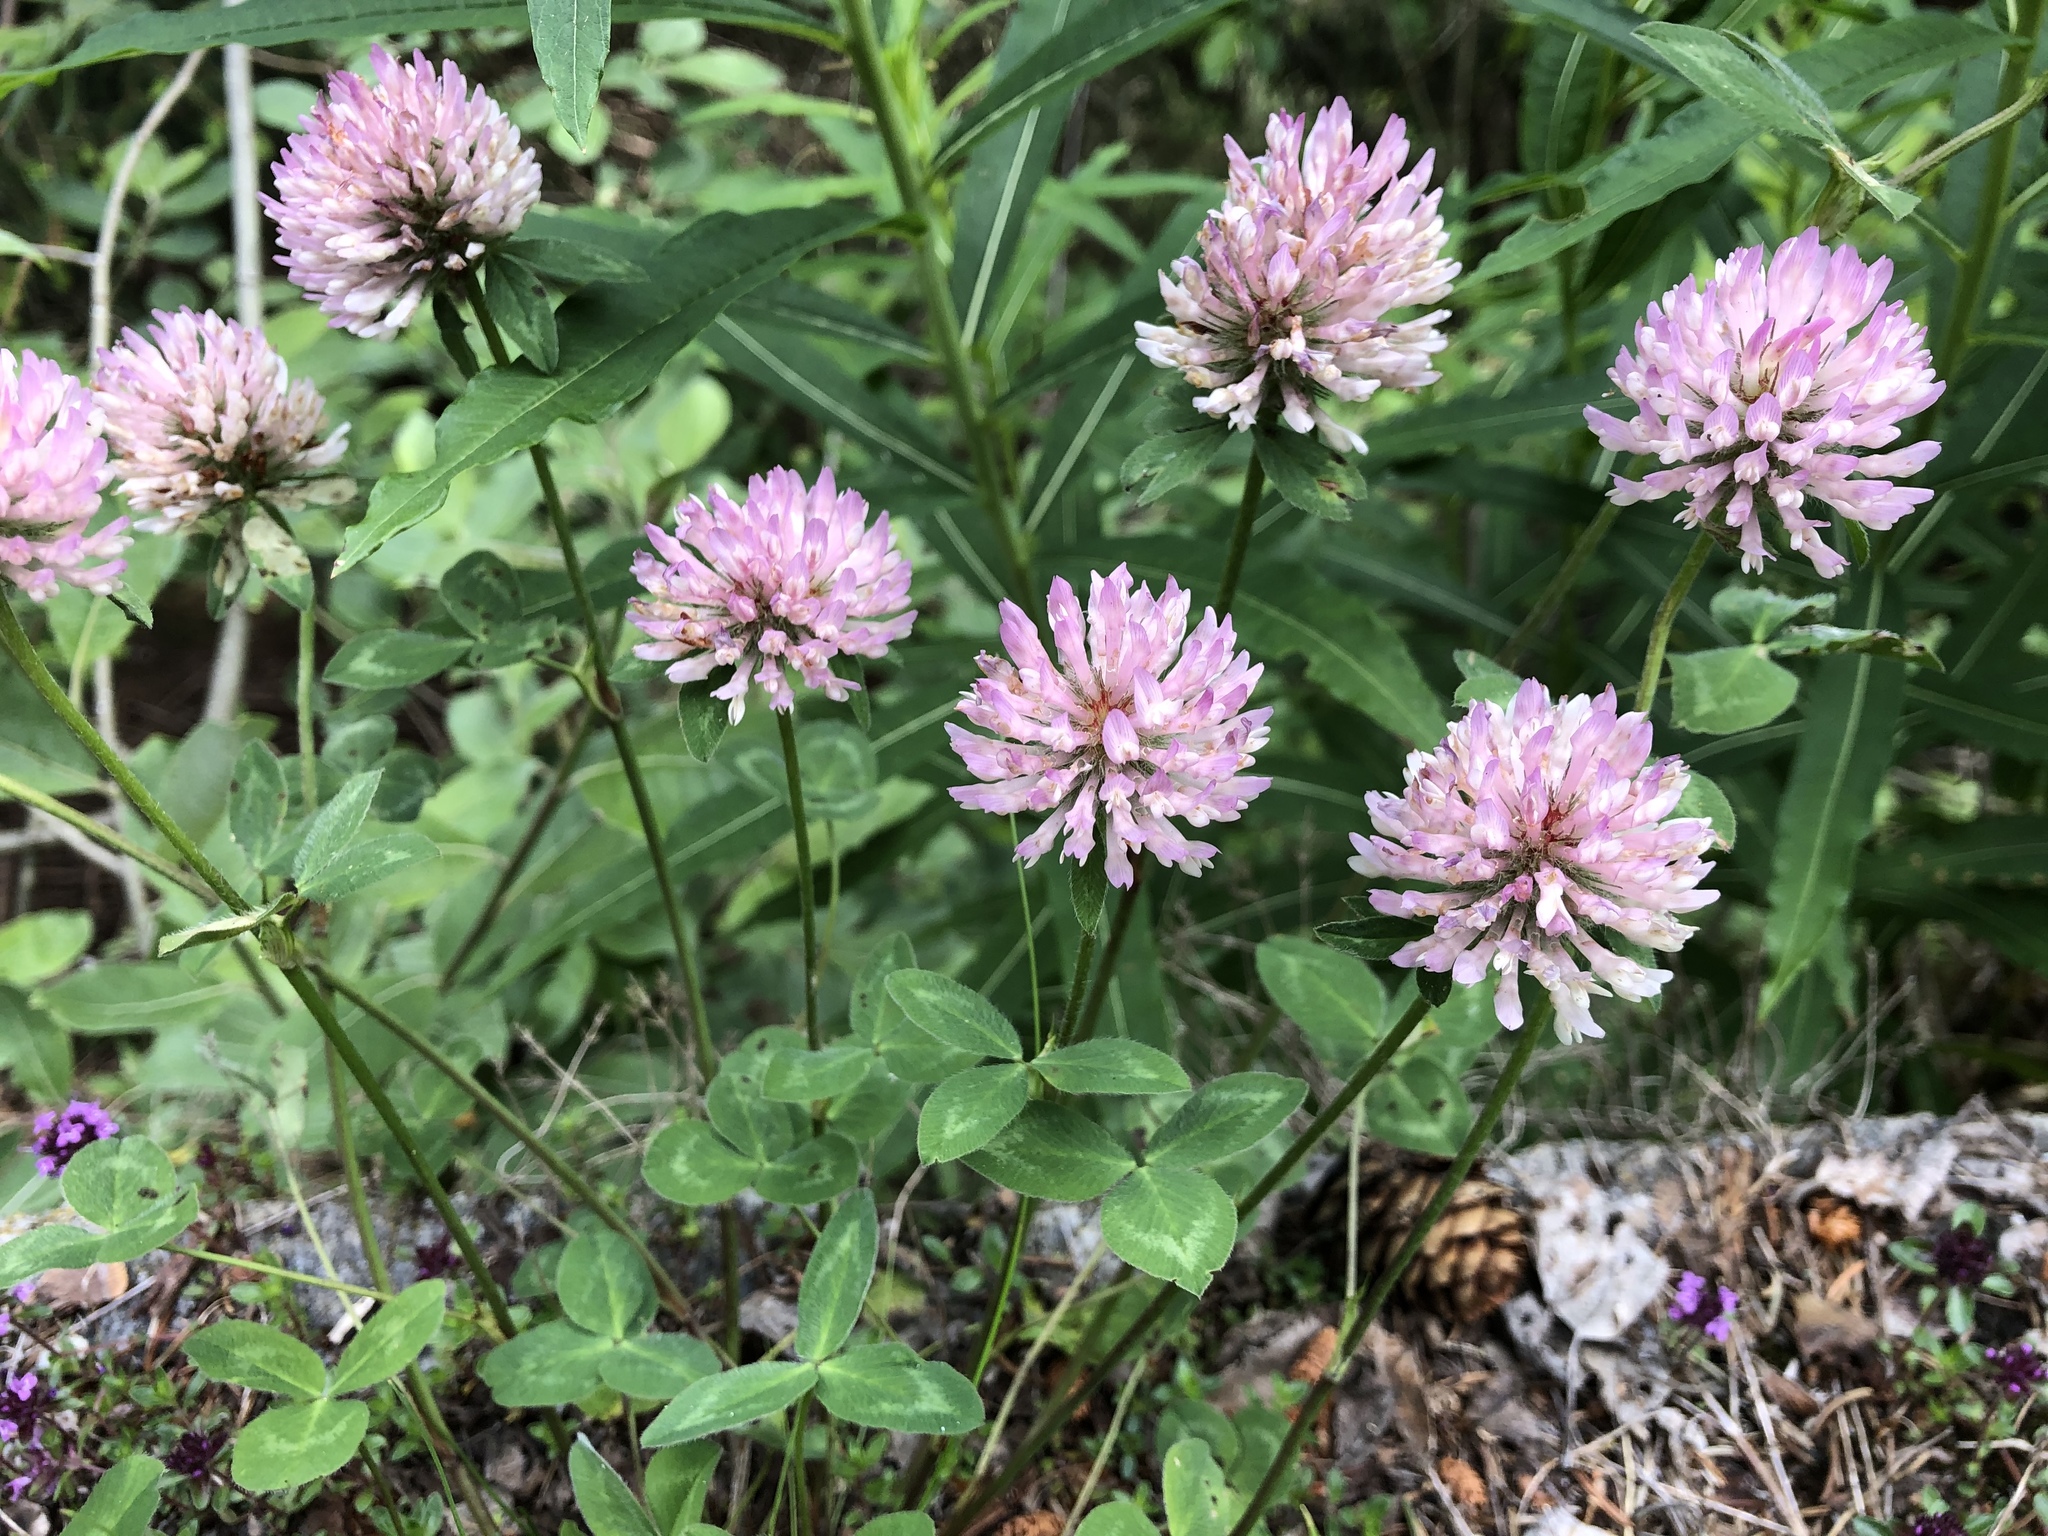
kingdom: Plantae
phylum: Tracheophyta
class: Magnoliopsida
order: Fabales
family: Fabaceae
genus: Trifolium
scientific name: Trifolium pratense
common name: Red clover
